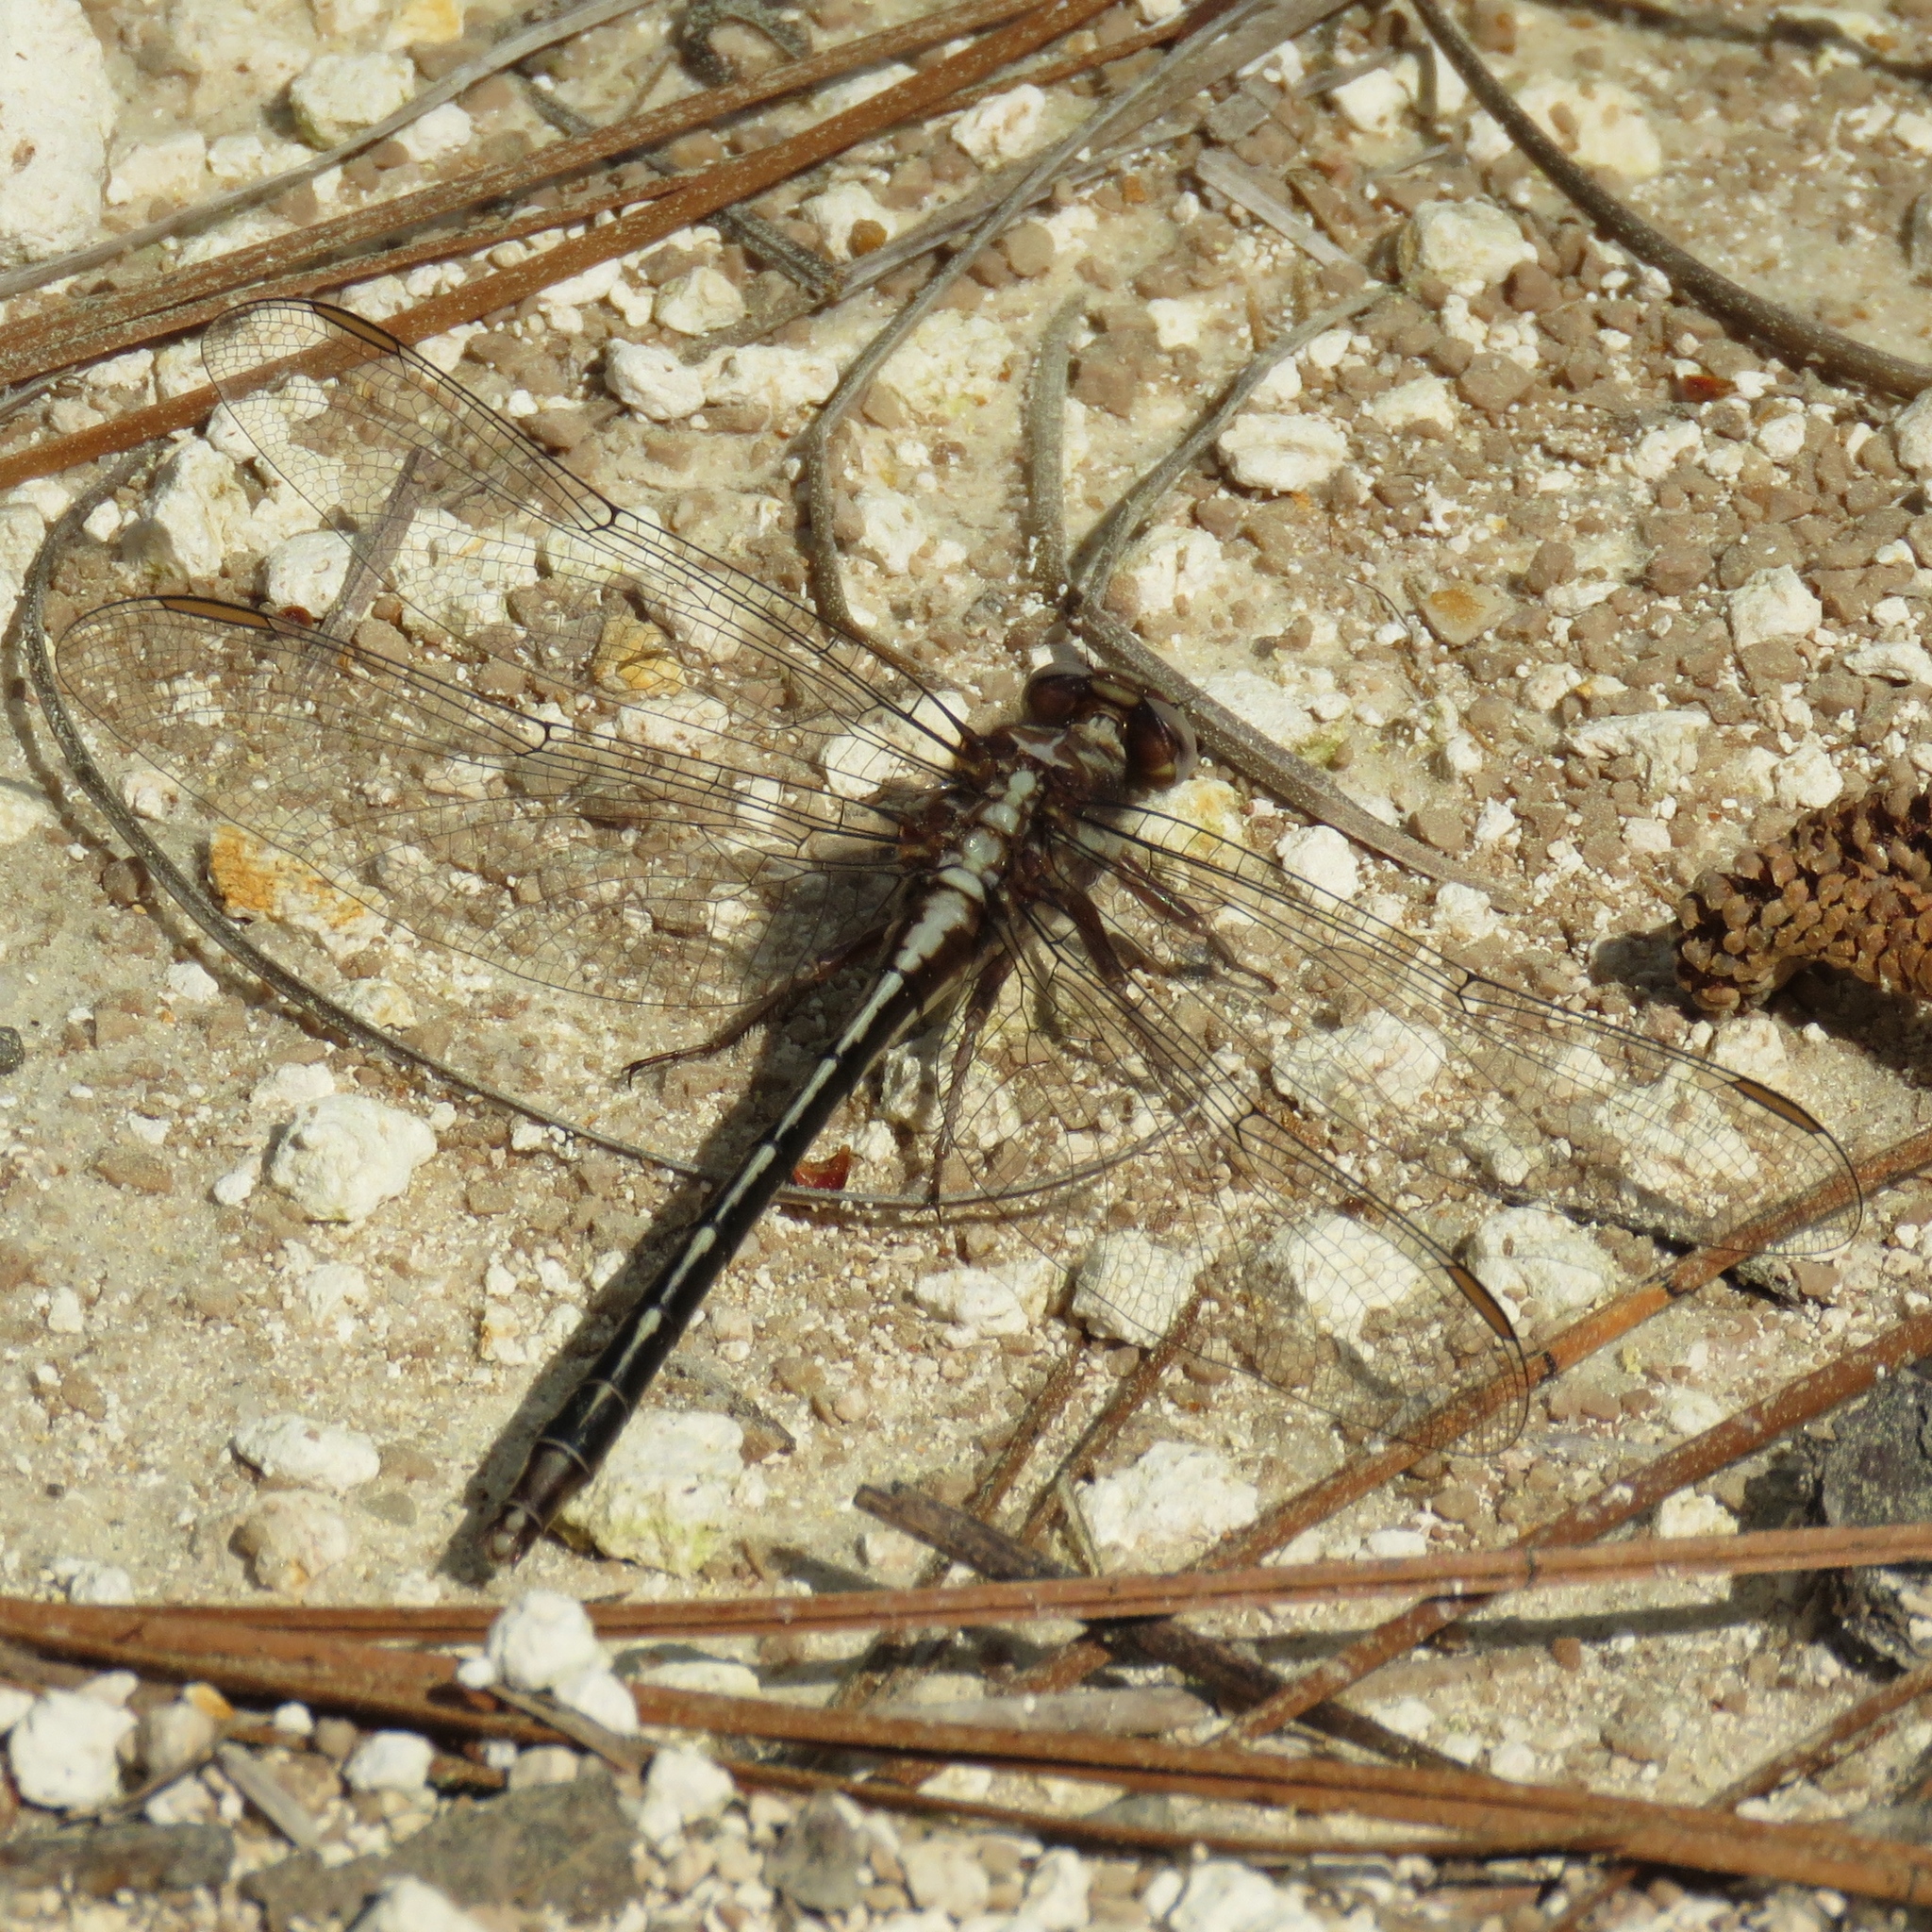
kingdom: Animalia
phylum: Arthropoda
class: Insecta
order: Odonata
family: Gomphidae
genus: Phanogomphus
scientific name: Phanogomphus lividus
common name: Ashy clubtail
